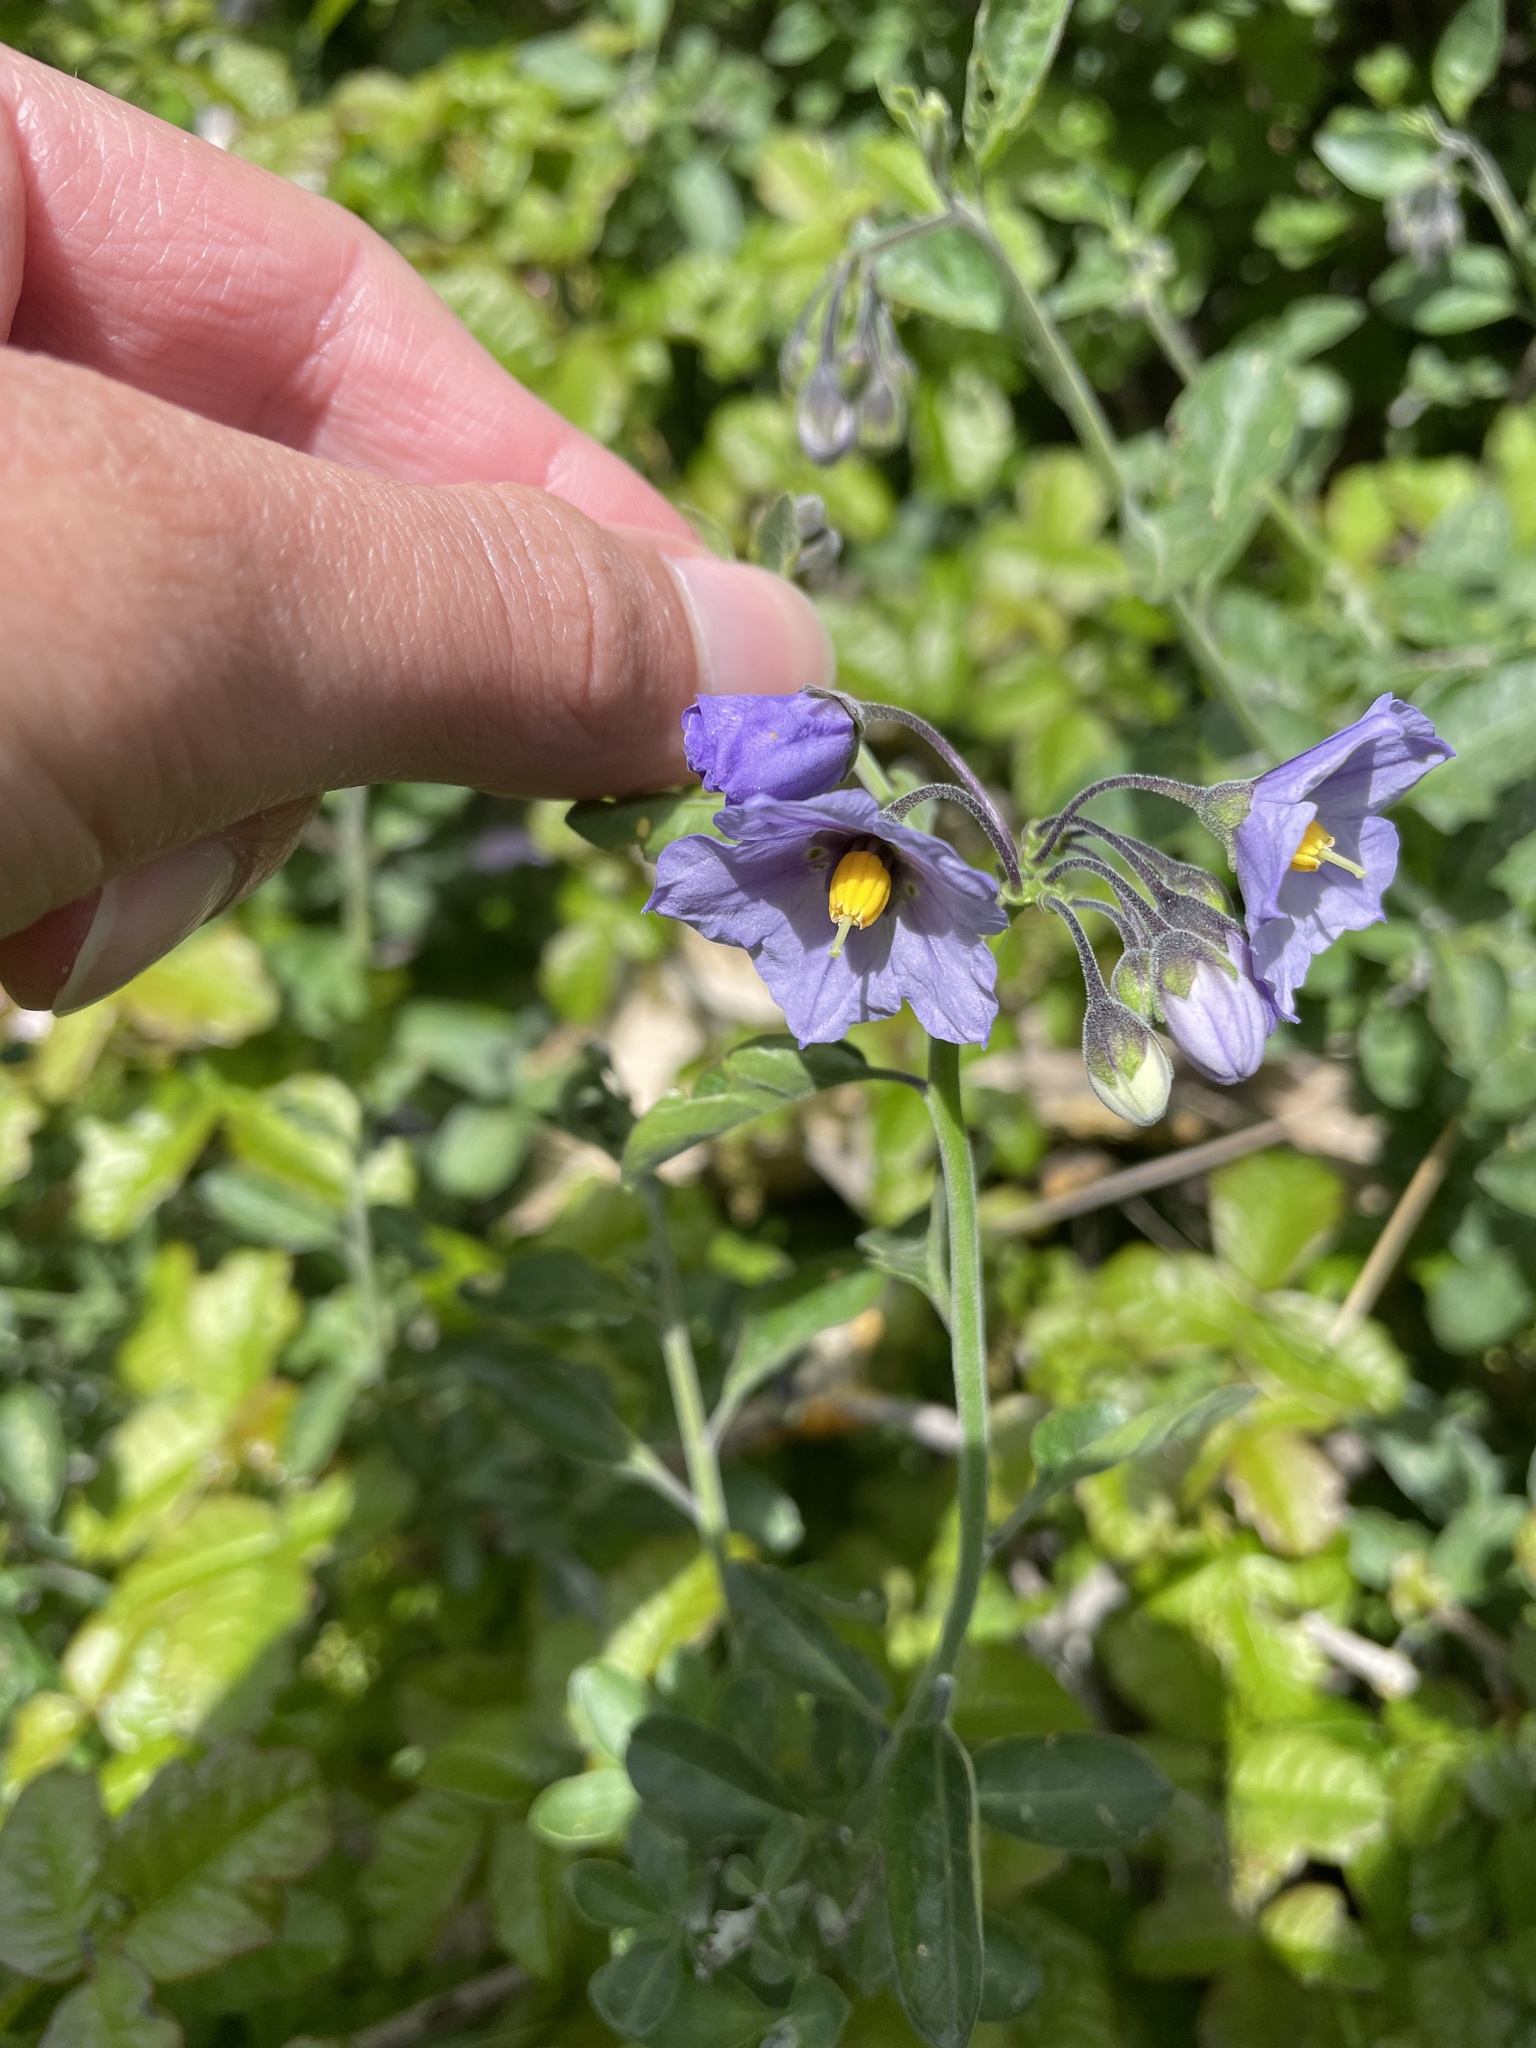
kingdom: Plantae
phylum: Tracheophyta
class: Magnoliopsida
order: Solanales
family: Solanaceae
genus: Solanum
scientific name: Solanum umbelliferum
